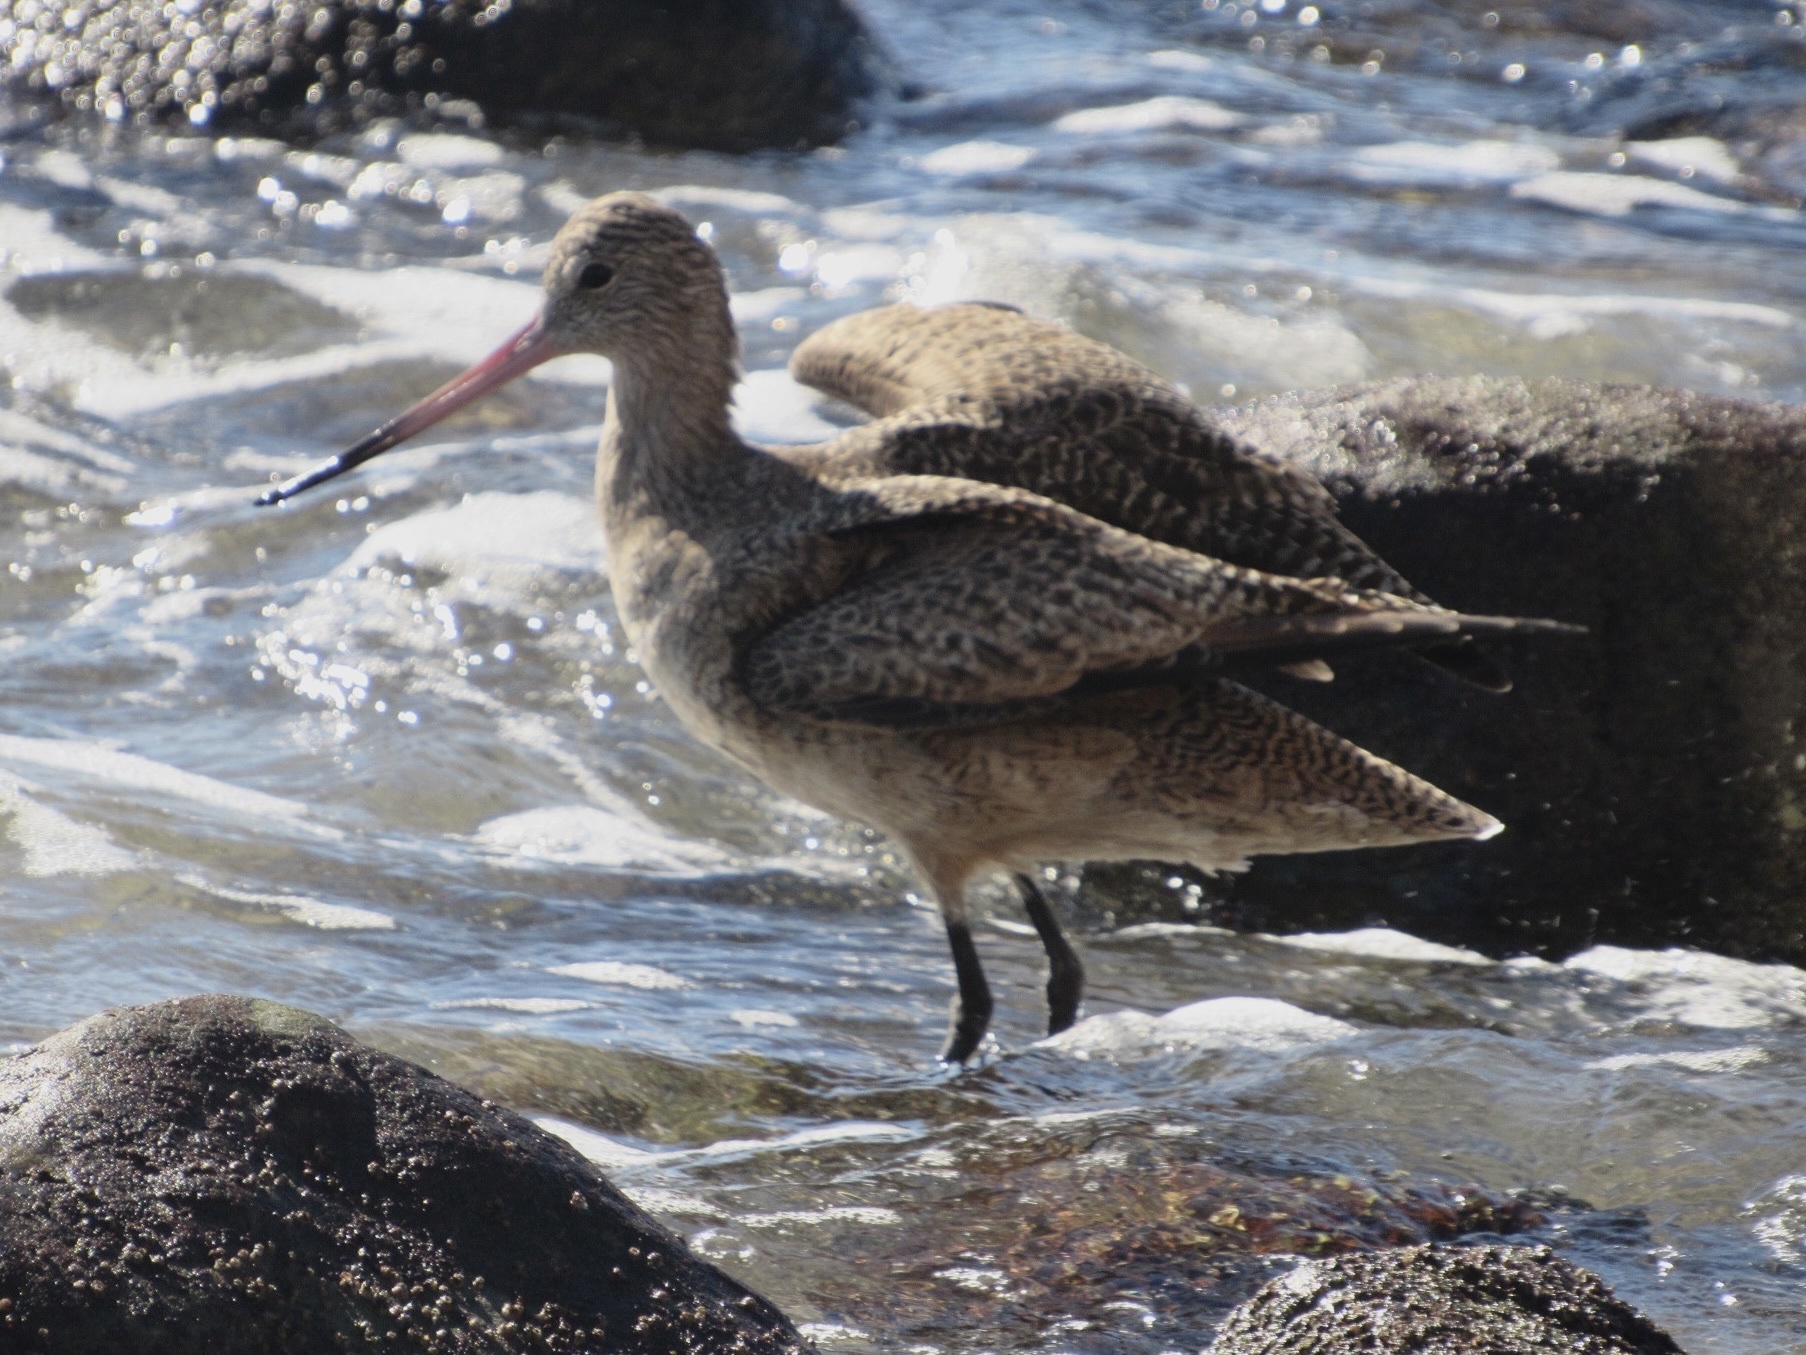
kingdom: Animalia
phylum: Chordata
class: Aves
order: Charadriiformes
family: Scolopacidae
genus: Limosa
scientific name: Limosa fedoa
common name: Marbled godwit
